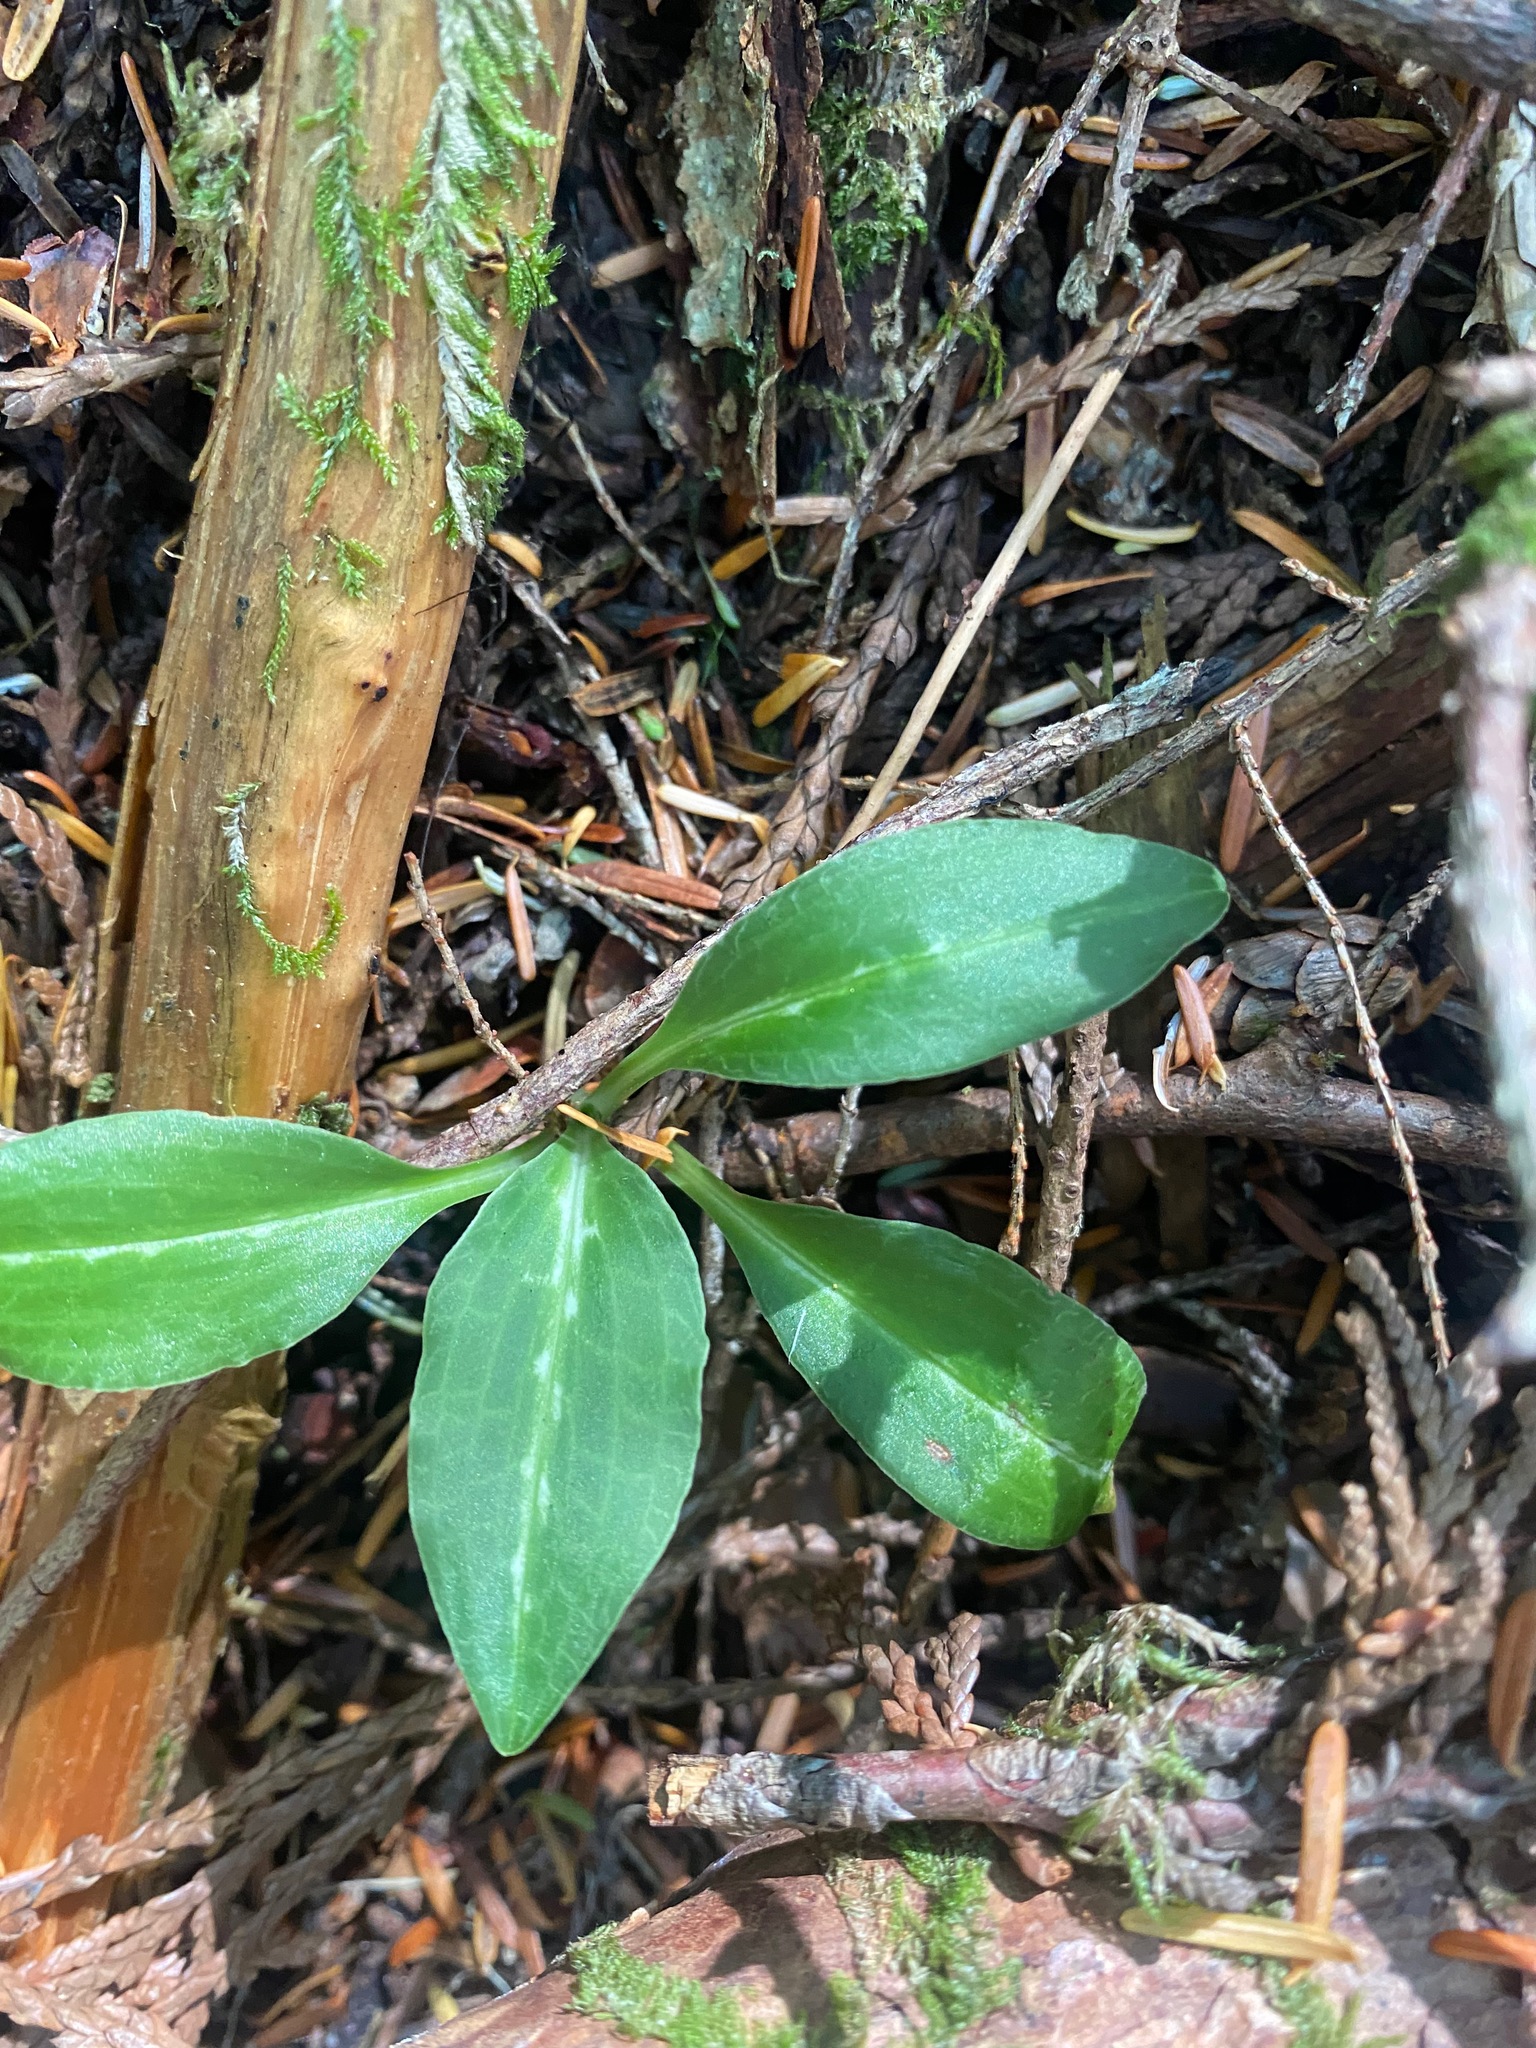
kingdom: Plantae
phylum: Tracheophyta
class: Liliopsida
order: Asparagales
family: Orchidaceae
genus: Goodyera
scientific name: Goodyera oblongifolia
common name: Giant rattlesnake-plantain
